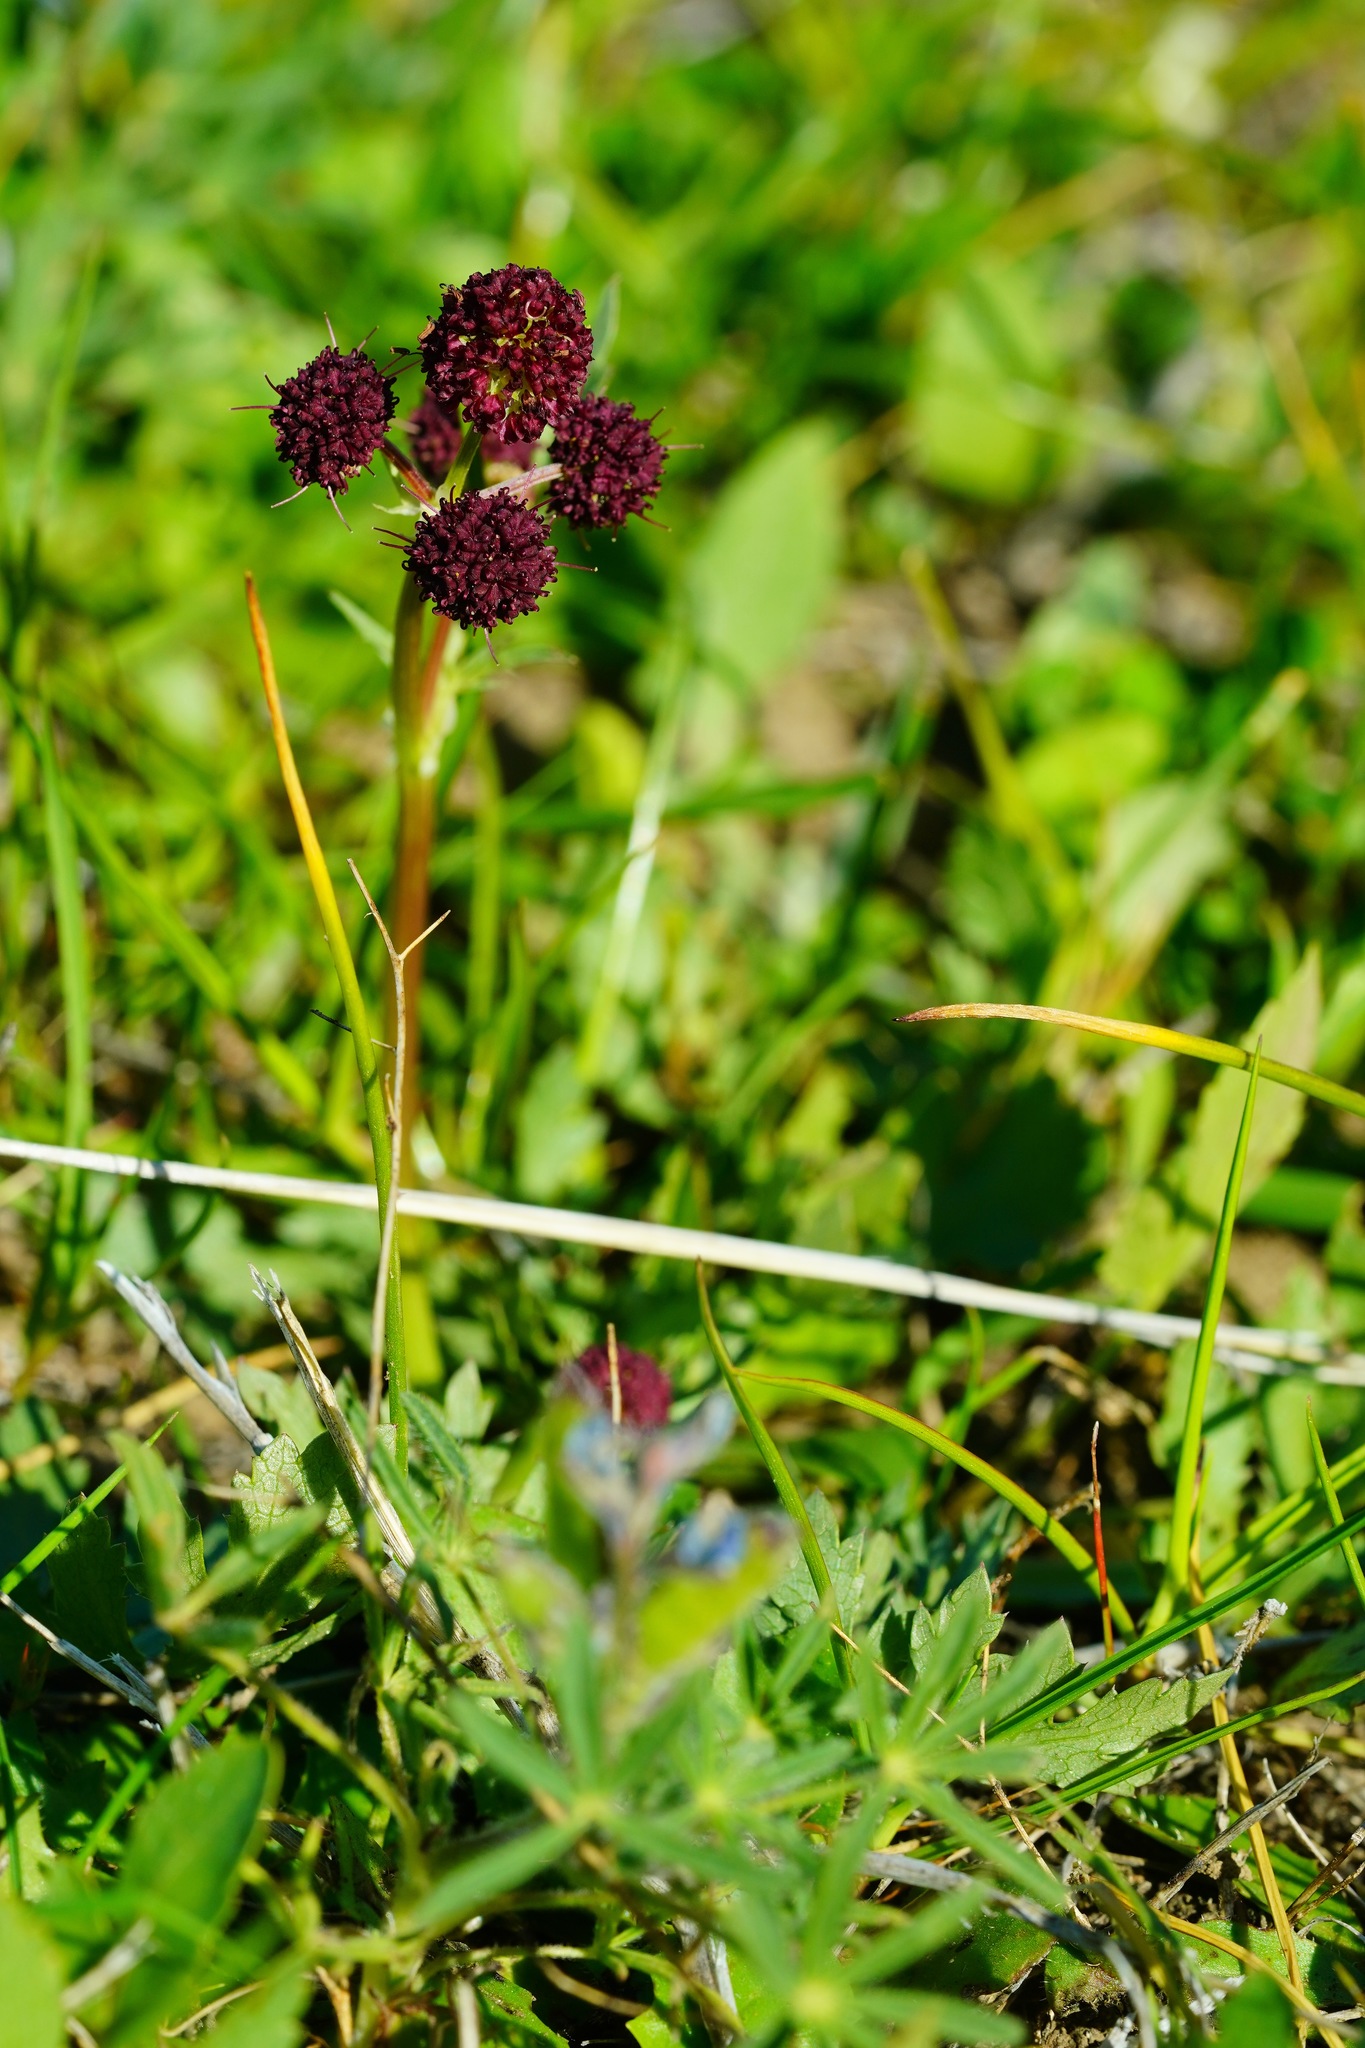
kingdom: Plantae
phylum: Tracheophyta
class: Magnoliopsida
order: Apiales
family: Apiaceae
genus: Sanicula
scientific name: Sanicula bipinnatifida
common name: Shoe-buttons
